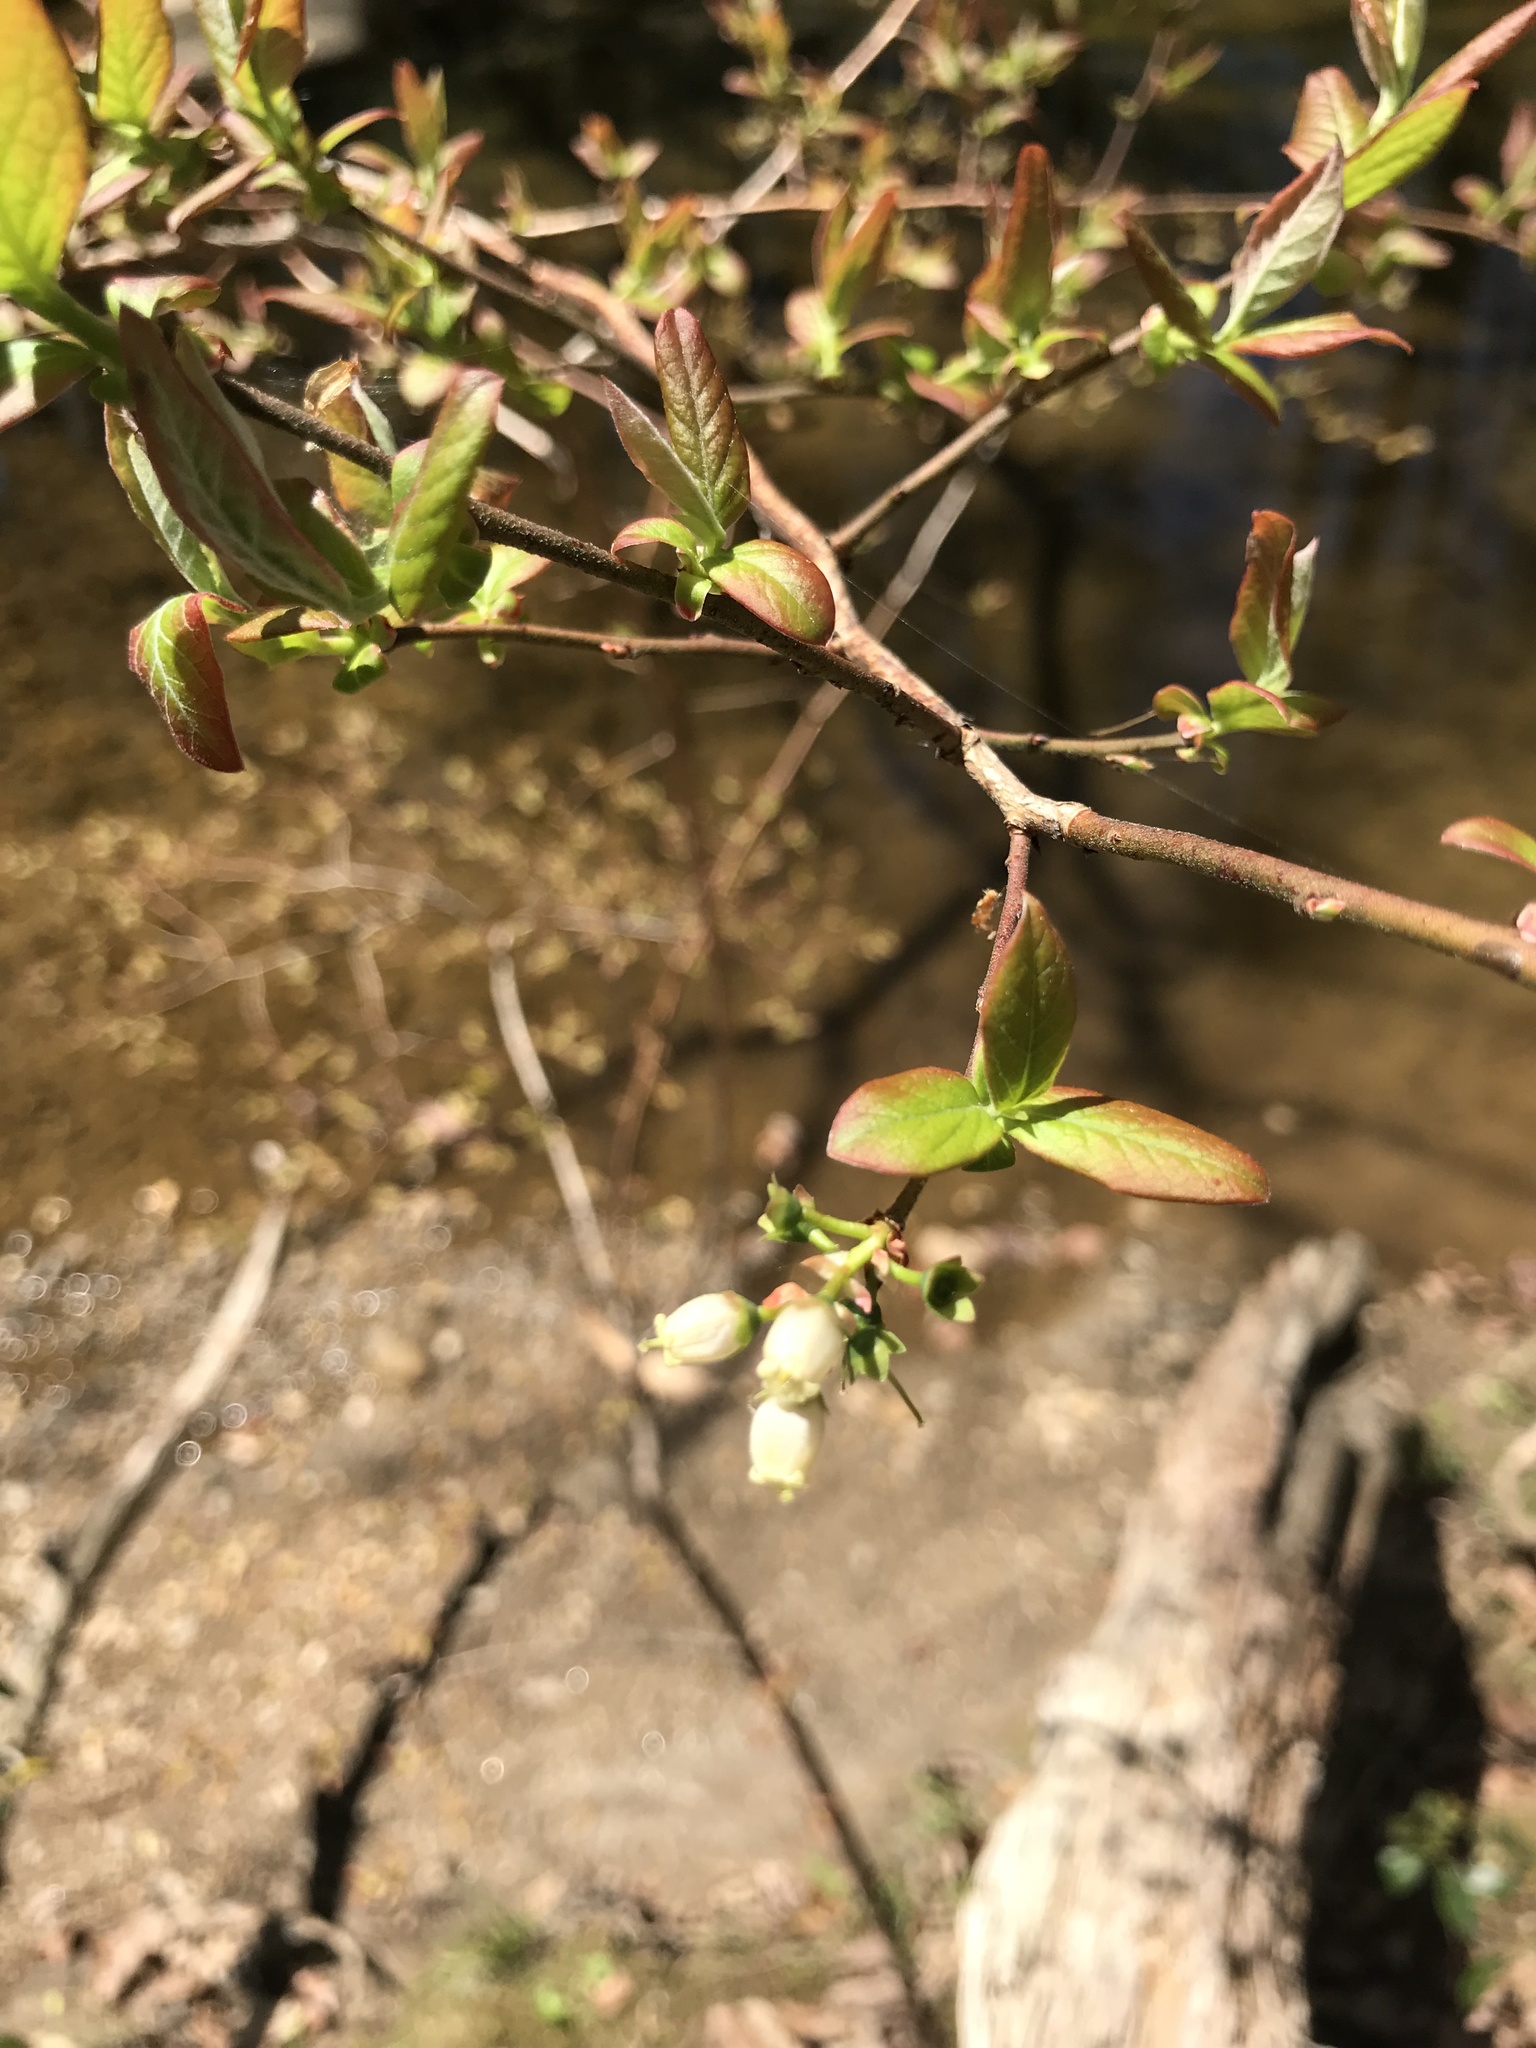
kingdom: Plantae
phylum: Tracheophyta
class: Magnoliopsida
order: Ericales
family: Ericaceae
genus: Vaccinium
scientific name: Vaccinium corymbosum
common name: Blueberry
